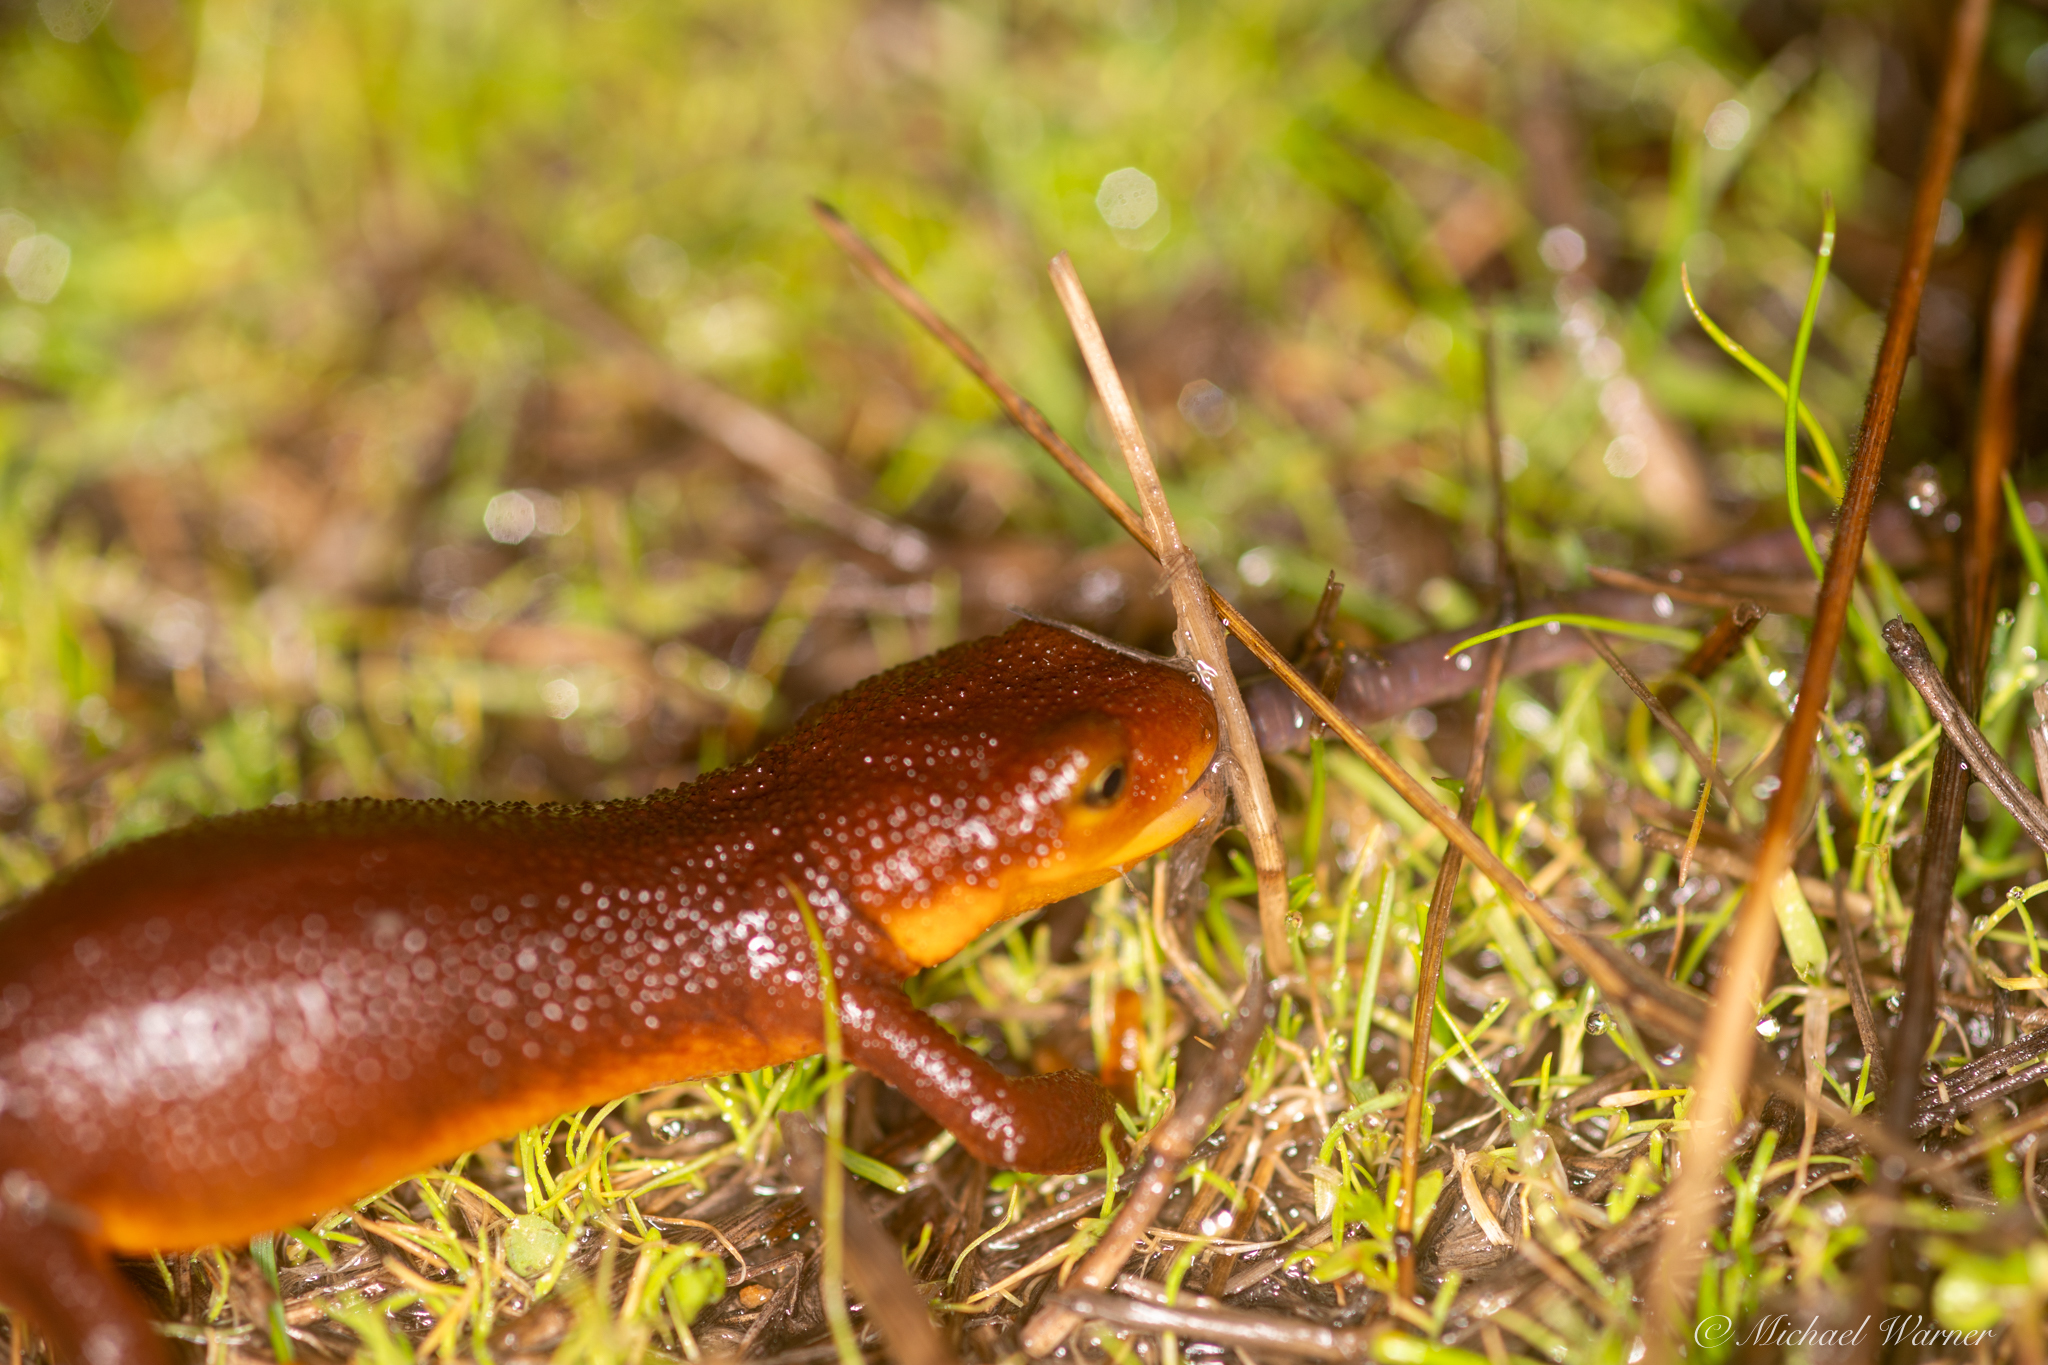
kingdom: Animalia
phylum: Chordata
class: Amphibia
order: Caudata
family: Salamandridae
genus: Taricha
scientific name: Taricha torosa
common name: California newt
